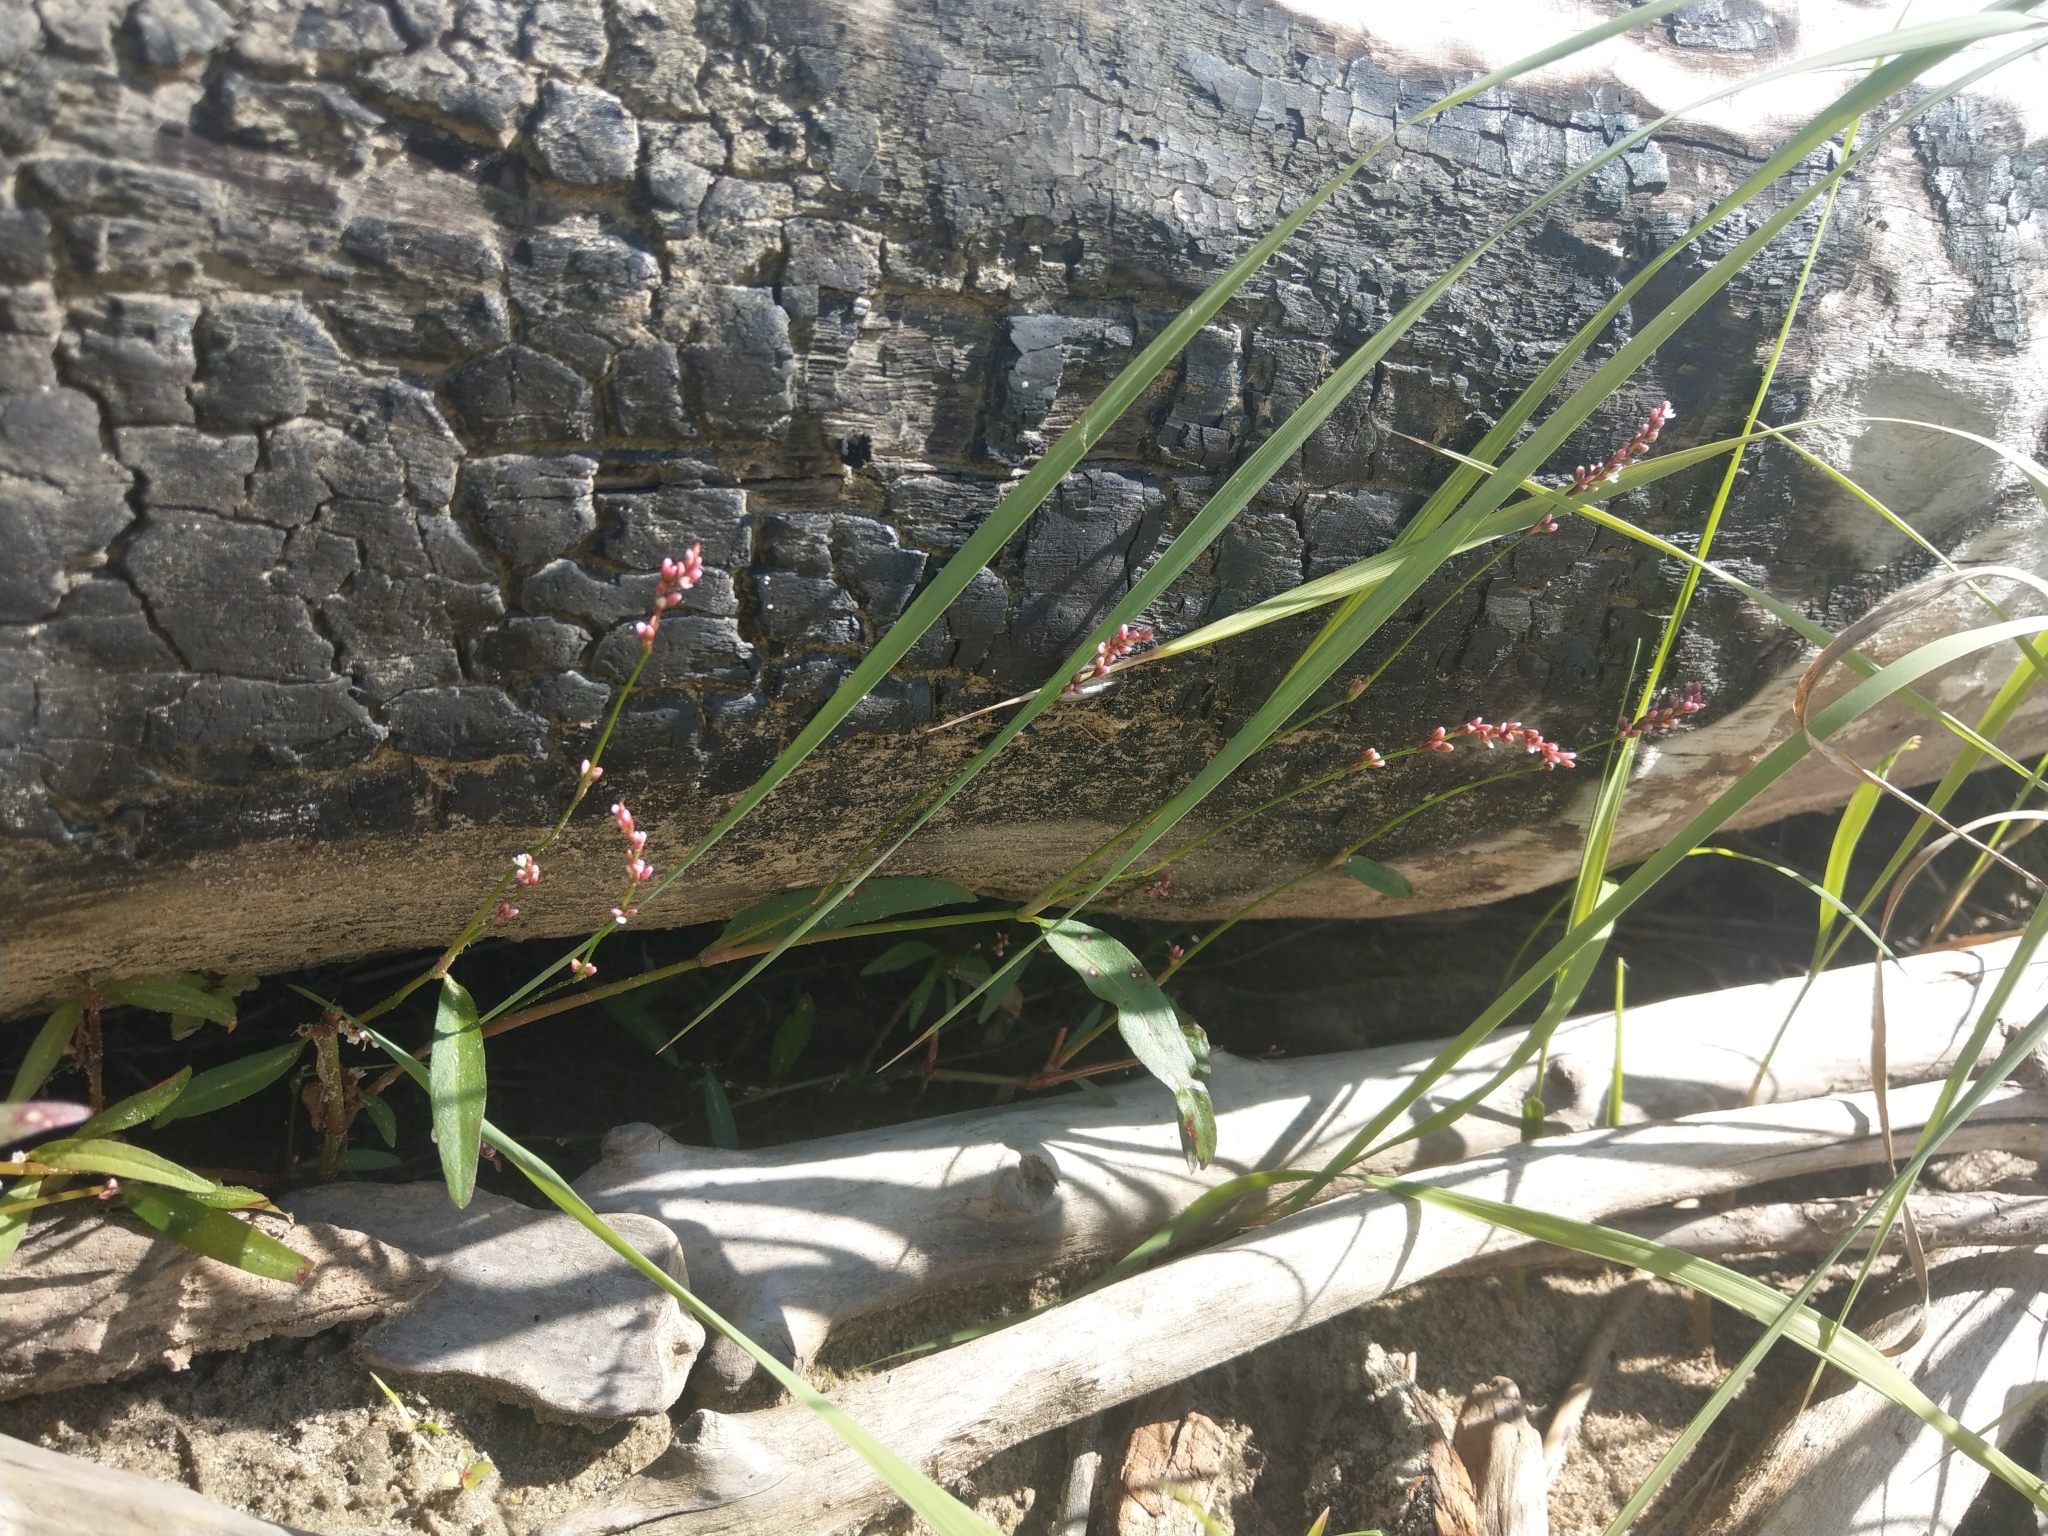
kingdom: Plantae
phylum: Tracheophyta
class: Magnoliopsida
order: Caryophyllales
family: Polygonaceae
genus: Persicaria
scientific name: Persicaria minor
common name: Small water-pepper
